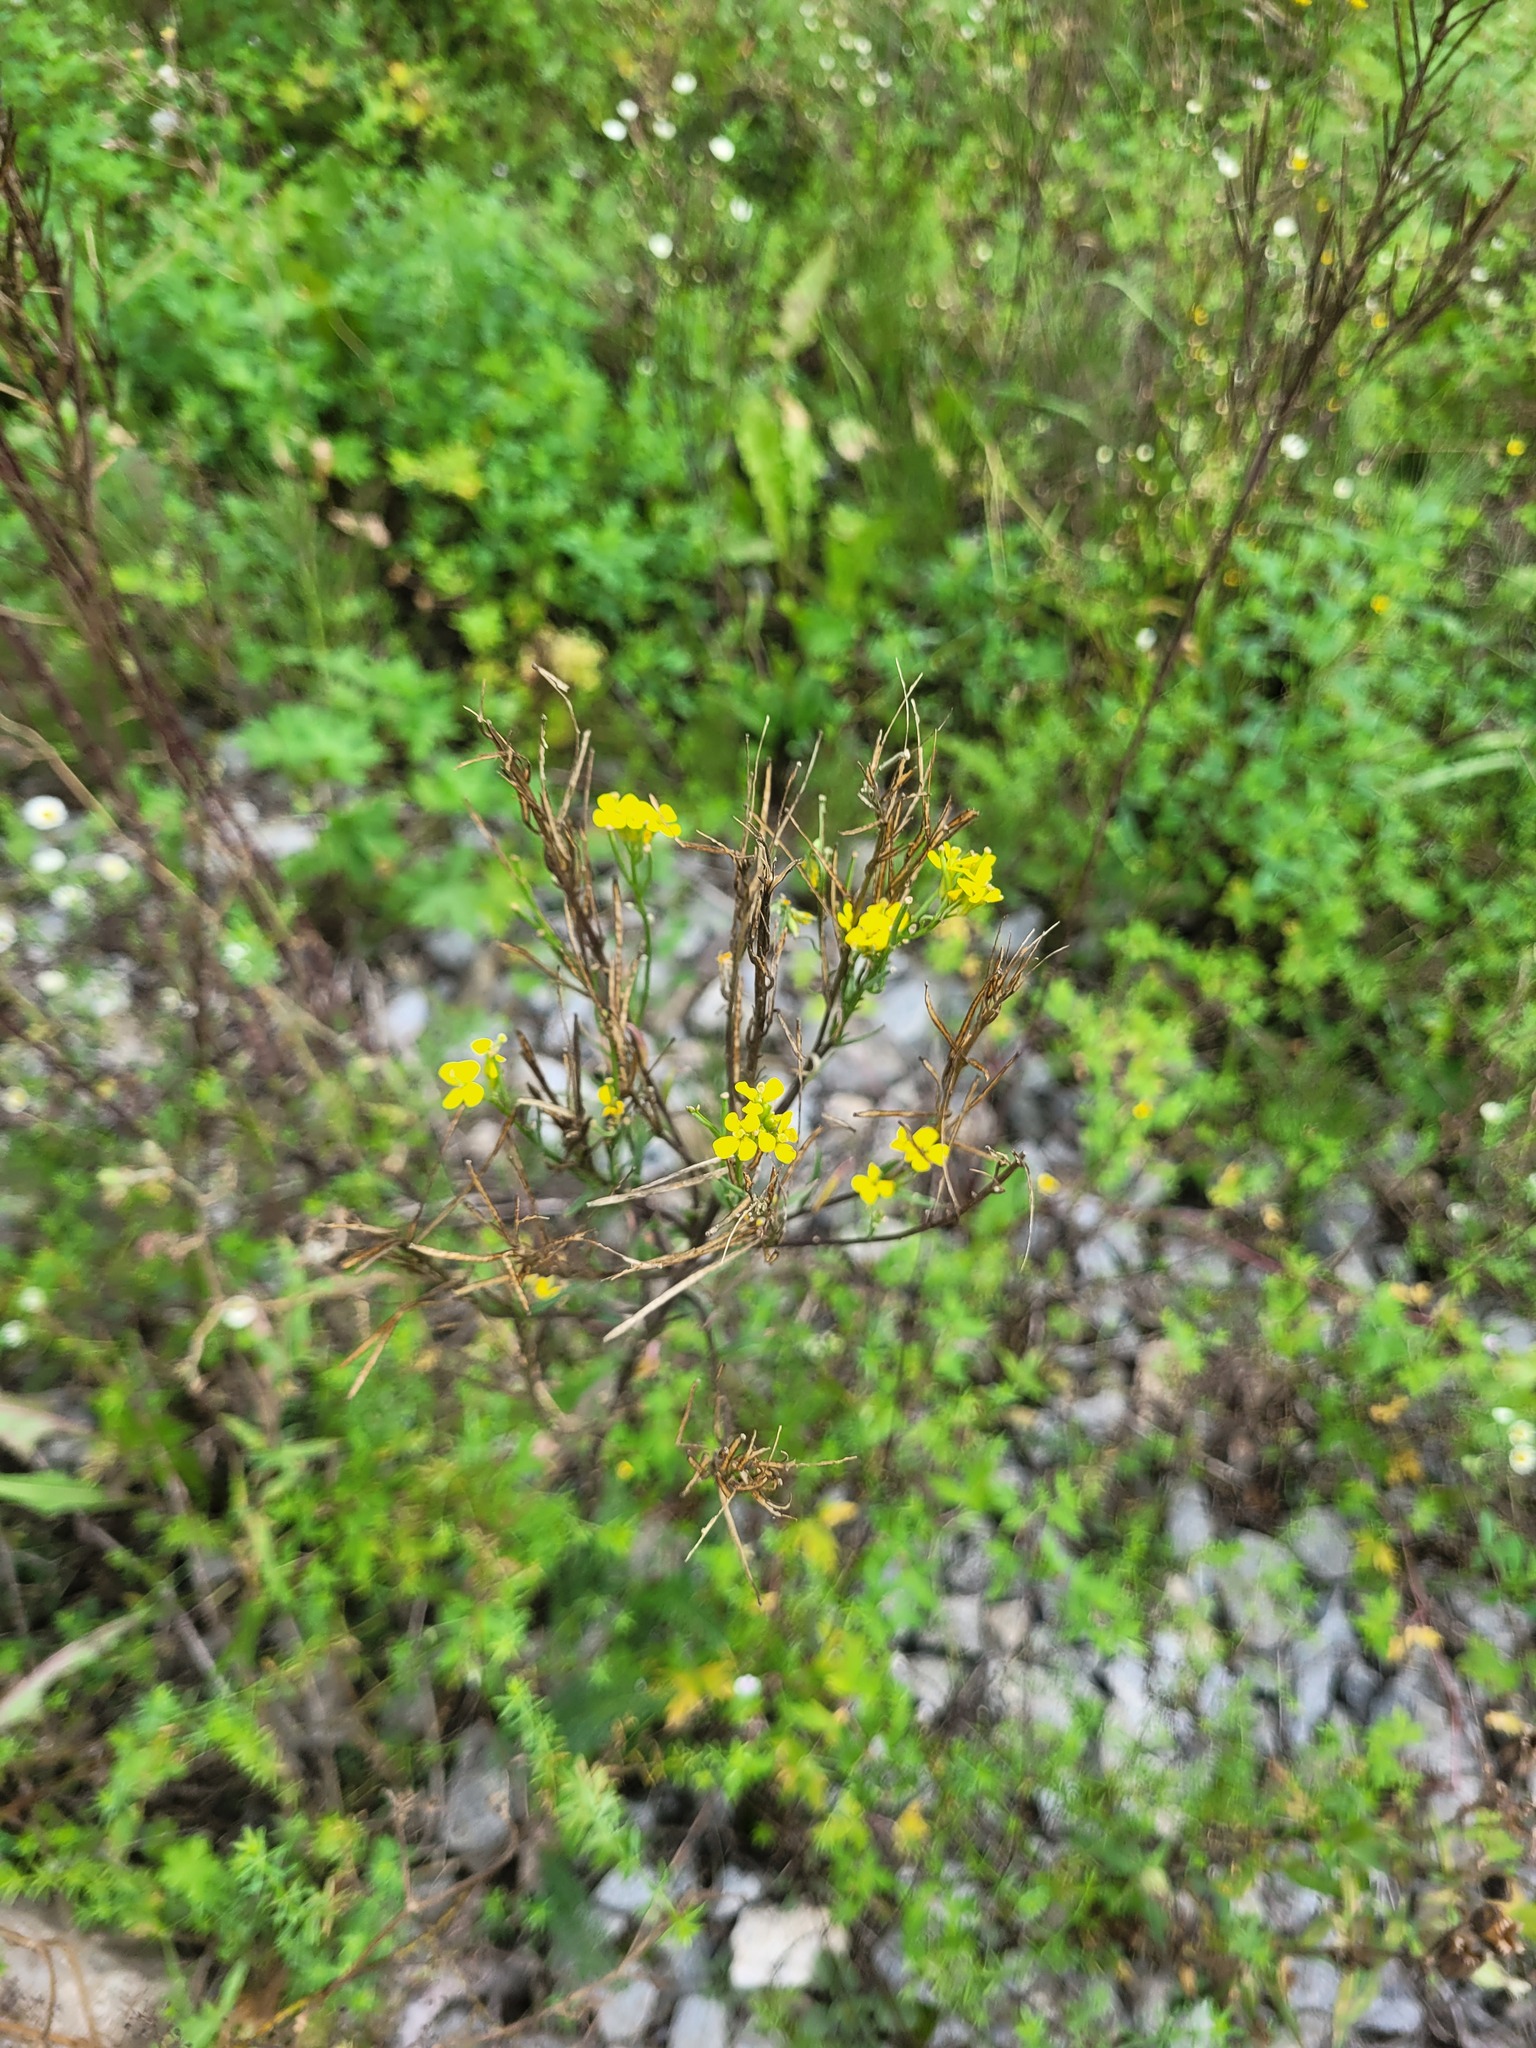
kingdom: Plantae
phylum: Tracheophyta
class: Magnoliopsida
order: Brassicales
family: Brassicaceae
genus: Erysimum
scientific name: Erysimum hieraciifolium
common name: European wallflower
